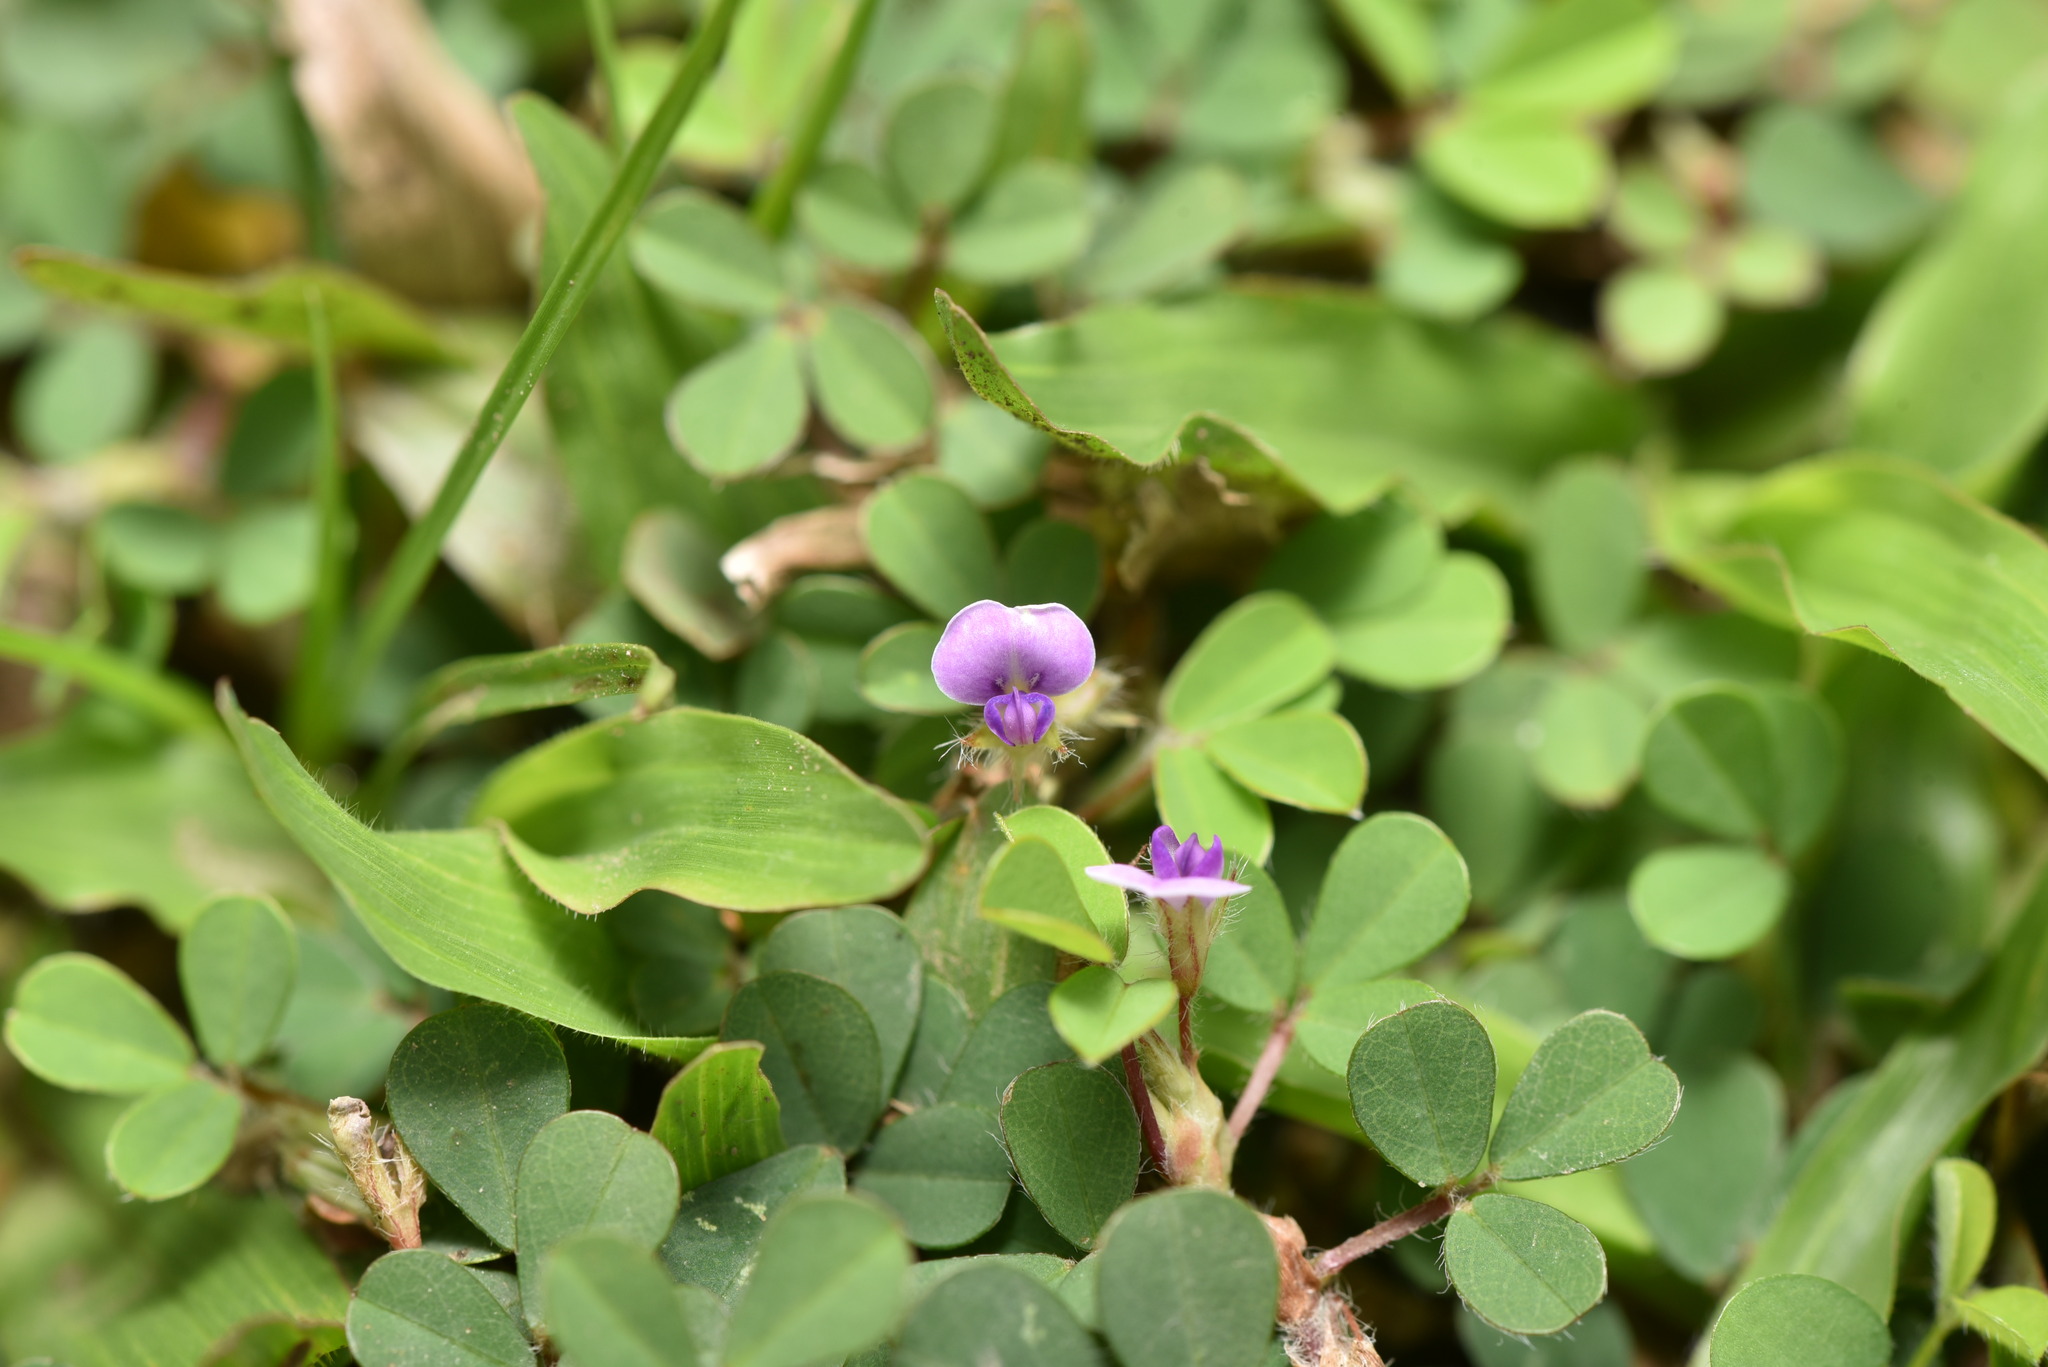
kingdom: Plantae
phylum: Tracheophyta
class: Magnoliopsida
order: Fabales
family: Fabaceae
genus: Grona
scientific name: Grona triflora
